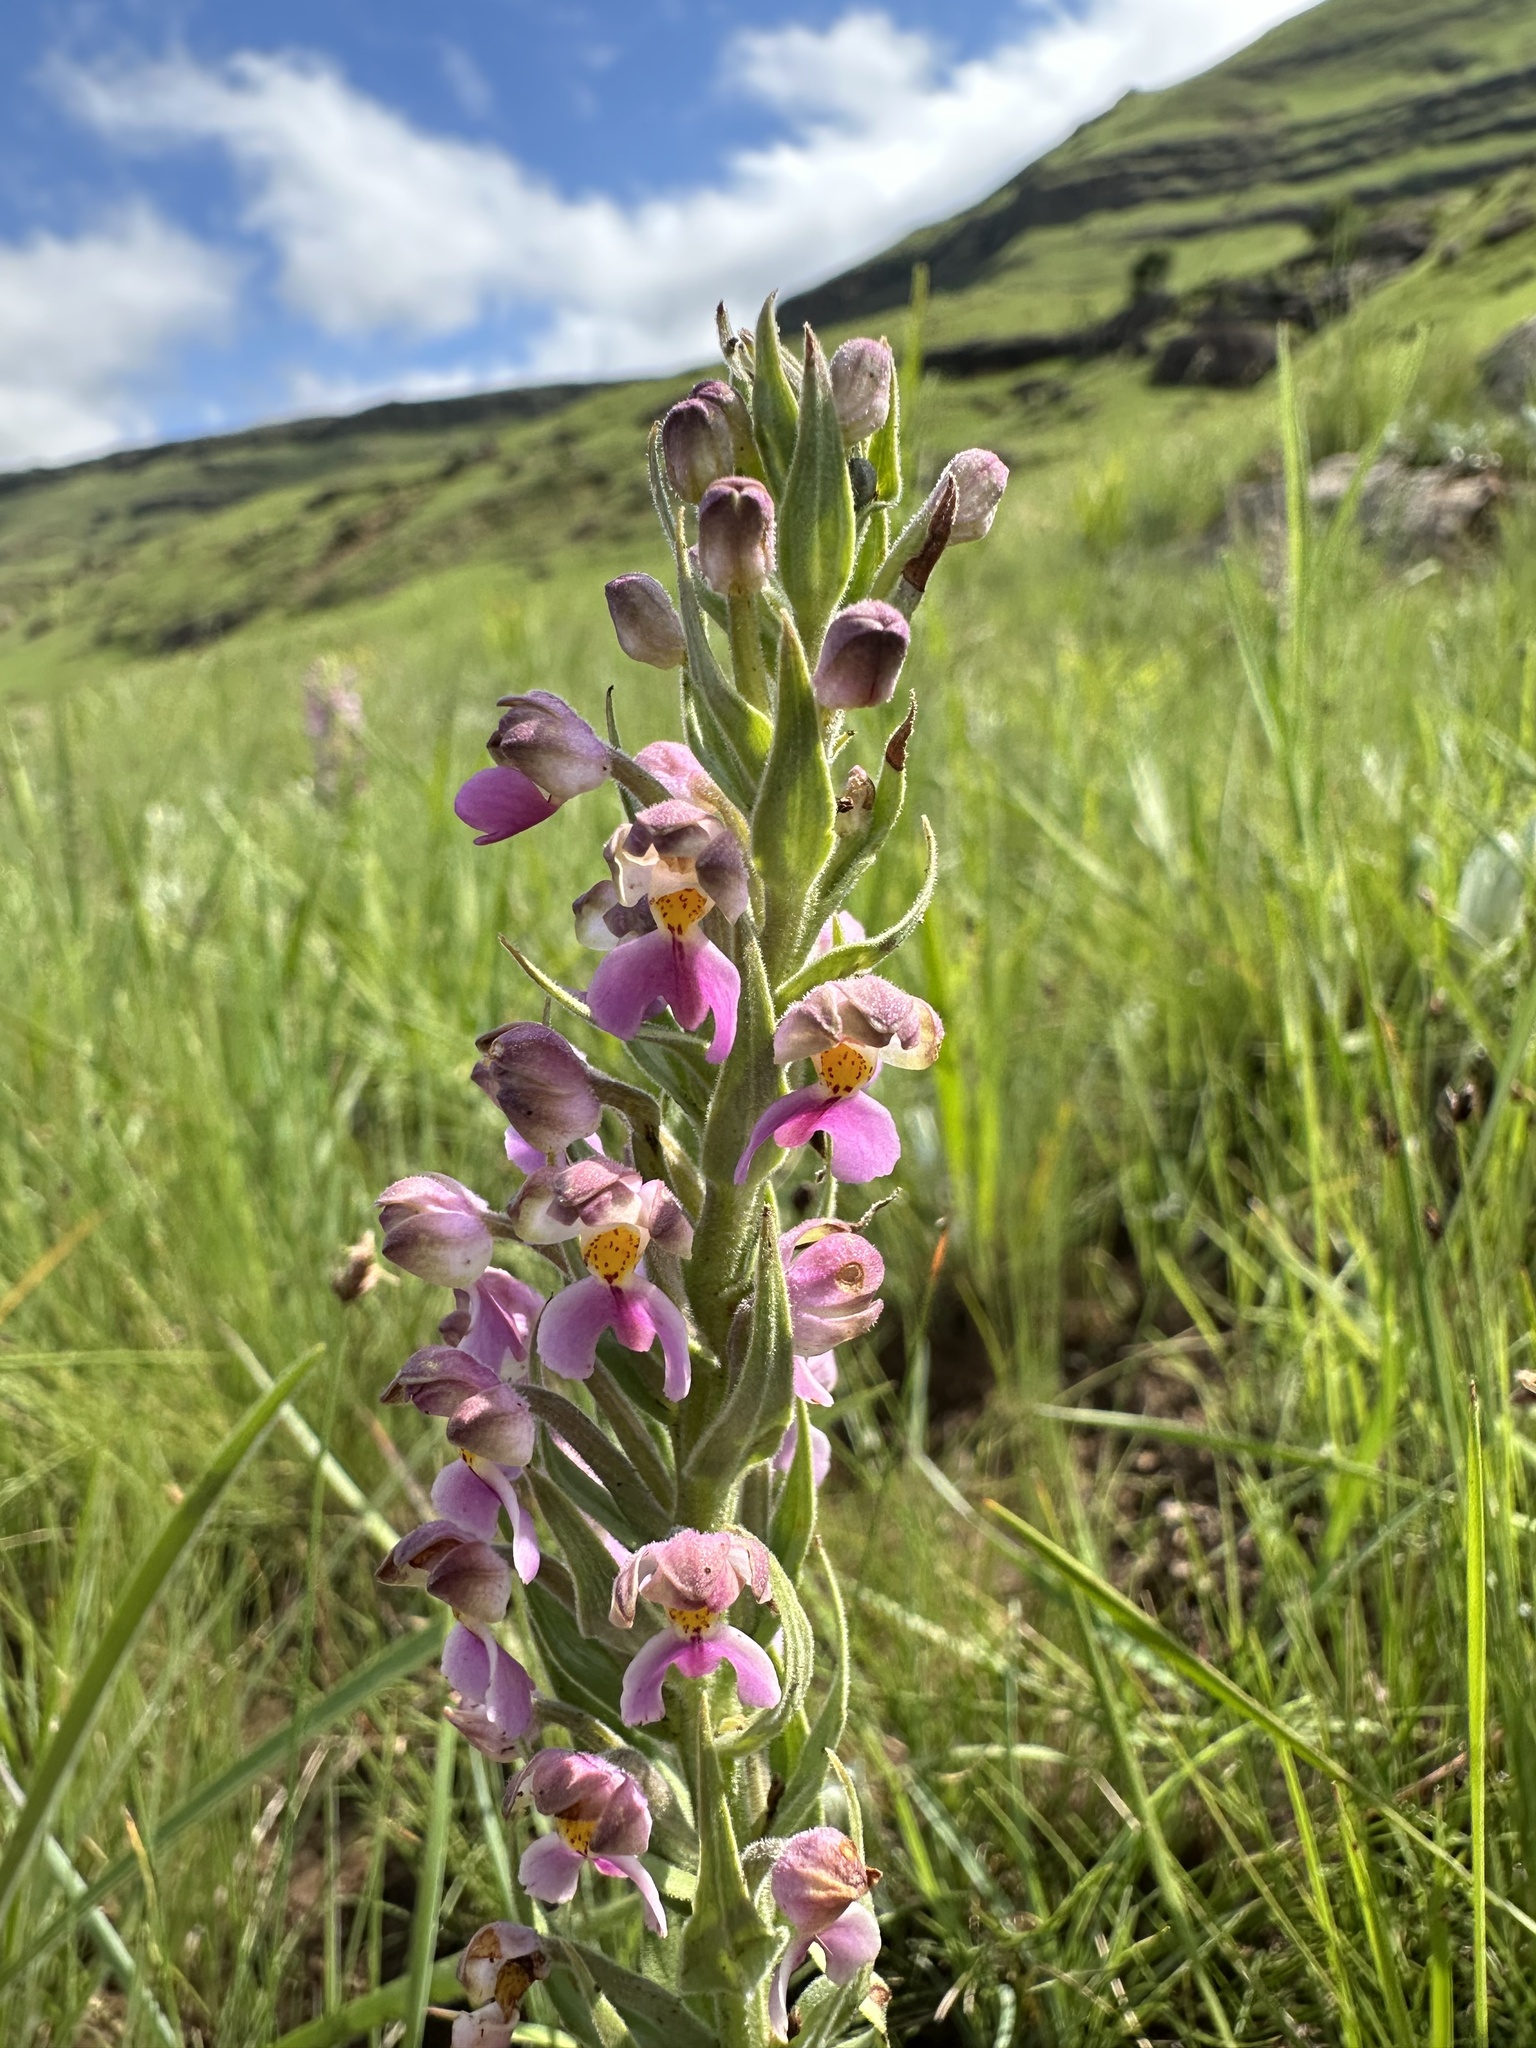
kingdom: Plantae
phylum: Tracheophyta
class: Liliopsida
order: Asparagales
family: Orchidaceae
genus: Brachycorythis
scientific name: Brachycorythis pubescens
